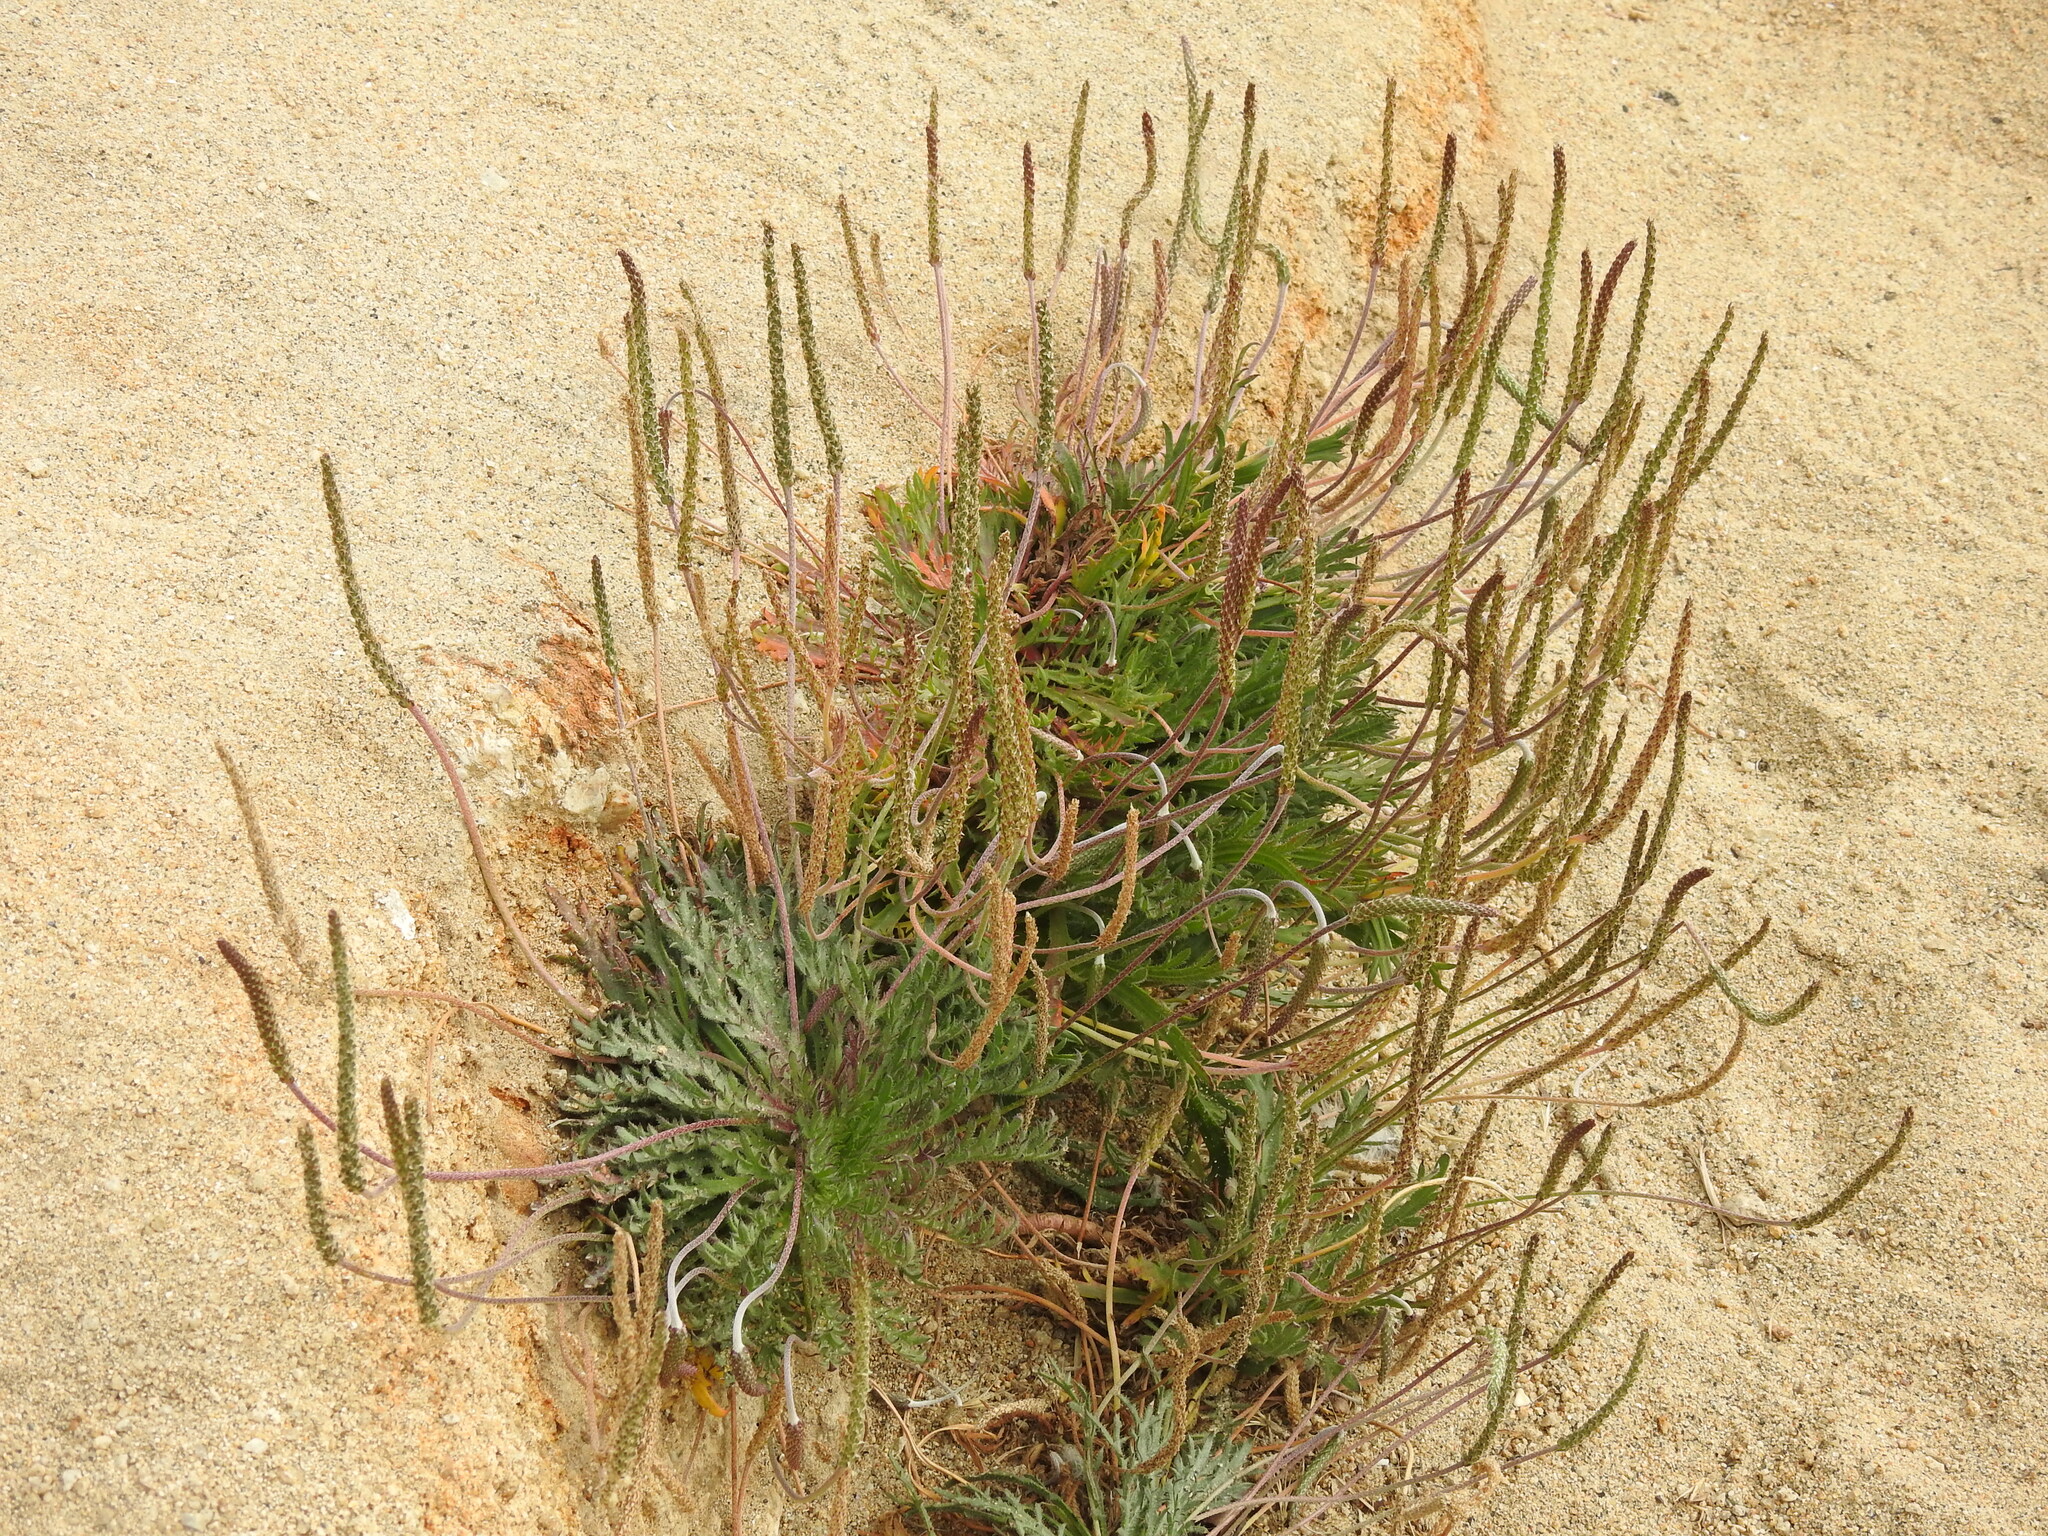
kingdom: Plantae
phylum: Tracheophyta
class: Magnoliopsida
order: Lamiales
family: Plantaginaceae
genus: Plantago
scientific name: Plantago coronopus
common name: Buck's-horn plantain
